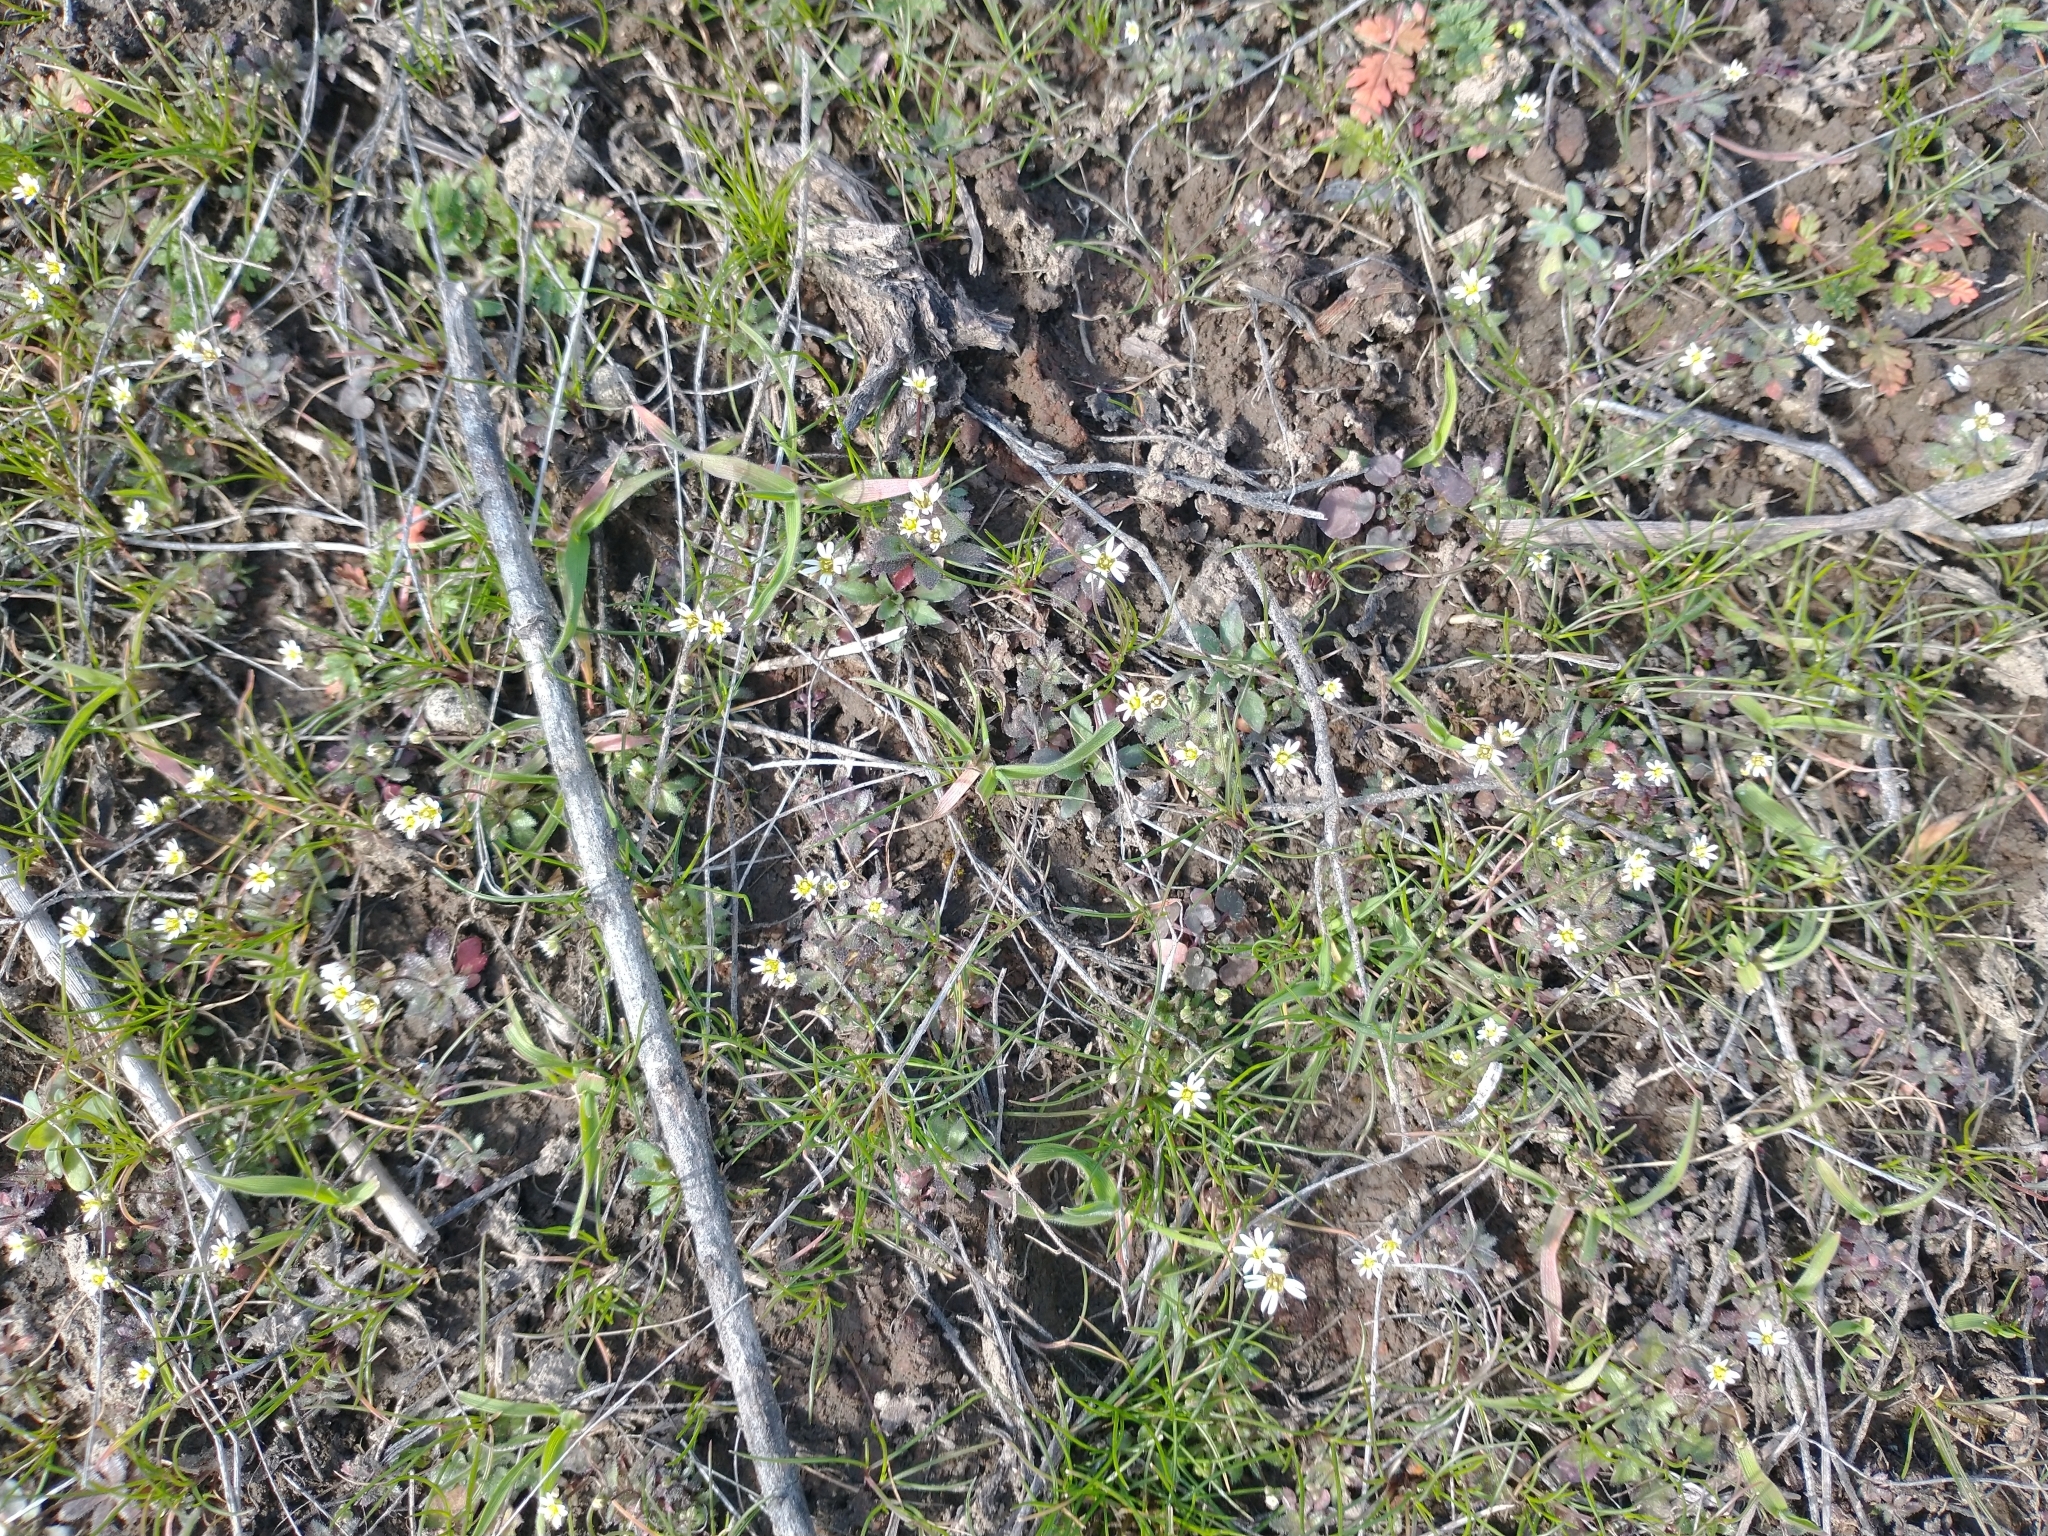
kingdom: Plantae
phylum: Tracheophyta
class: Magnoliopsida
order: Brassicales
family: Brassicaceae
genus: Draba
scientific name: Draba verna
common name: Spring draba
